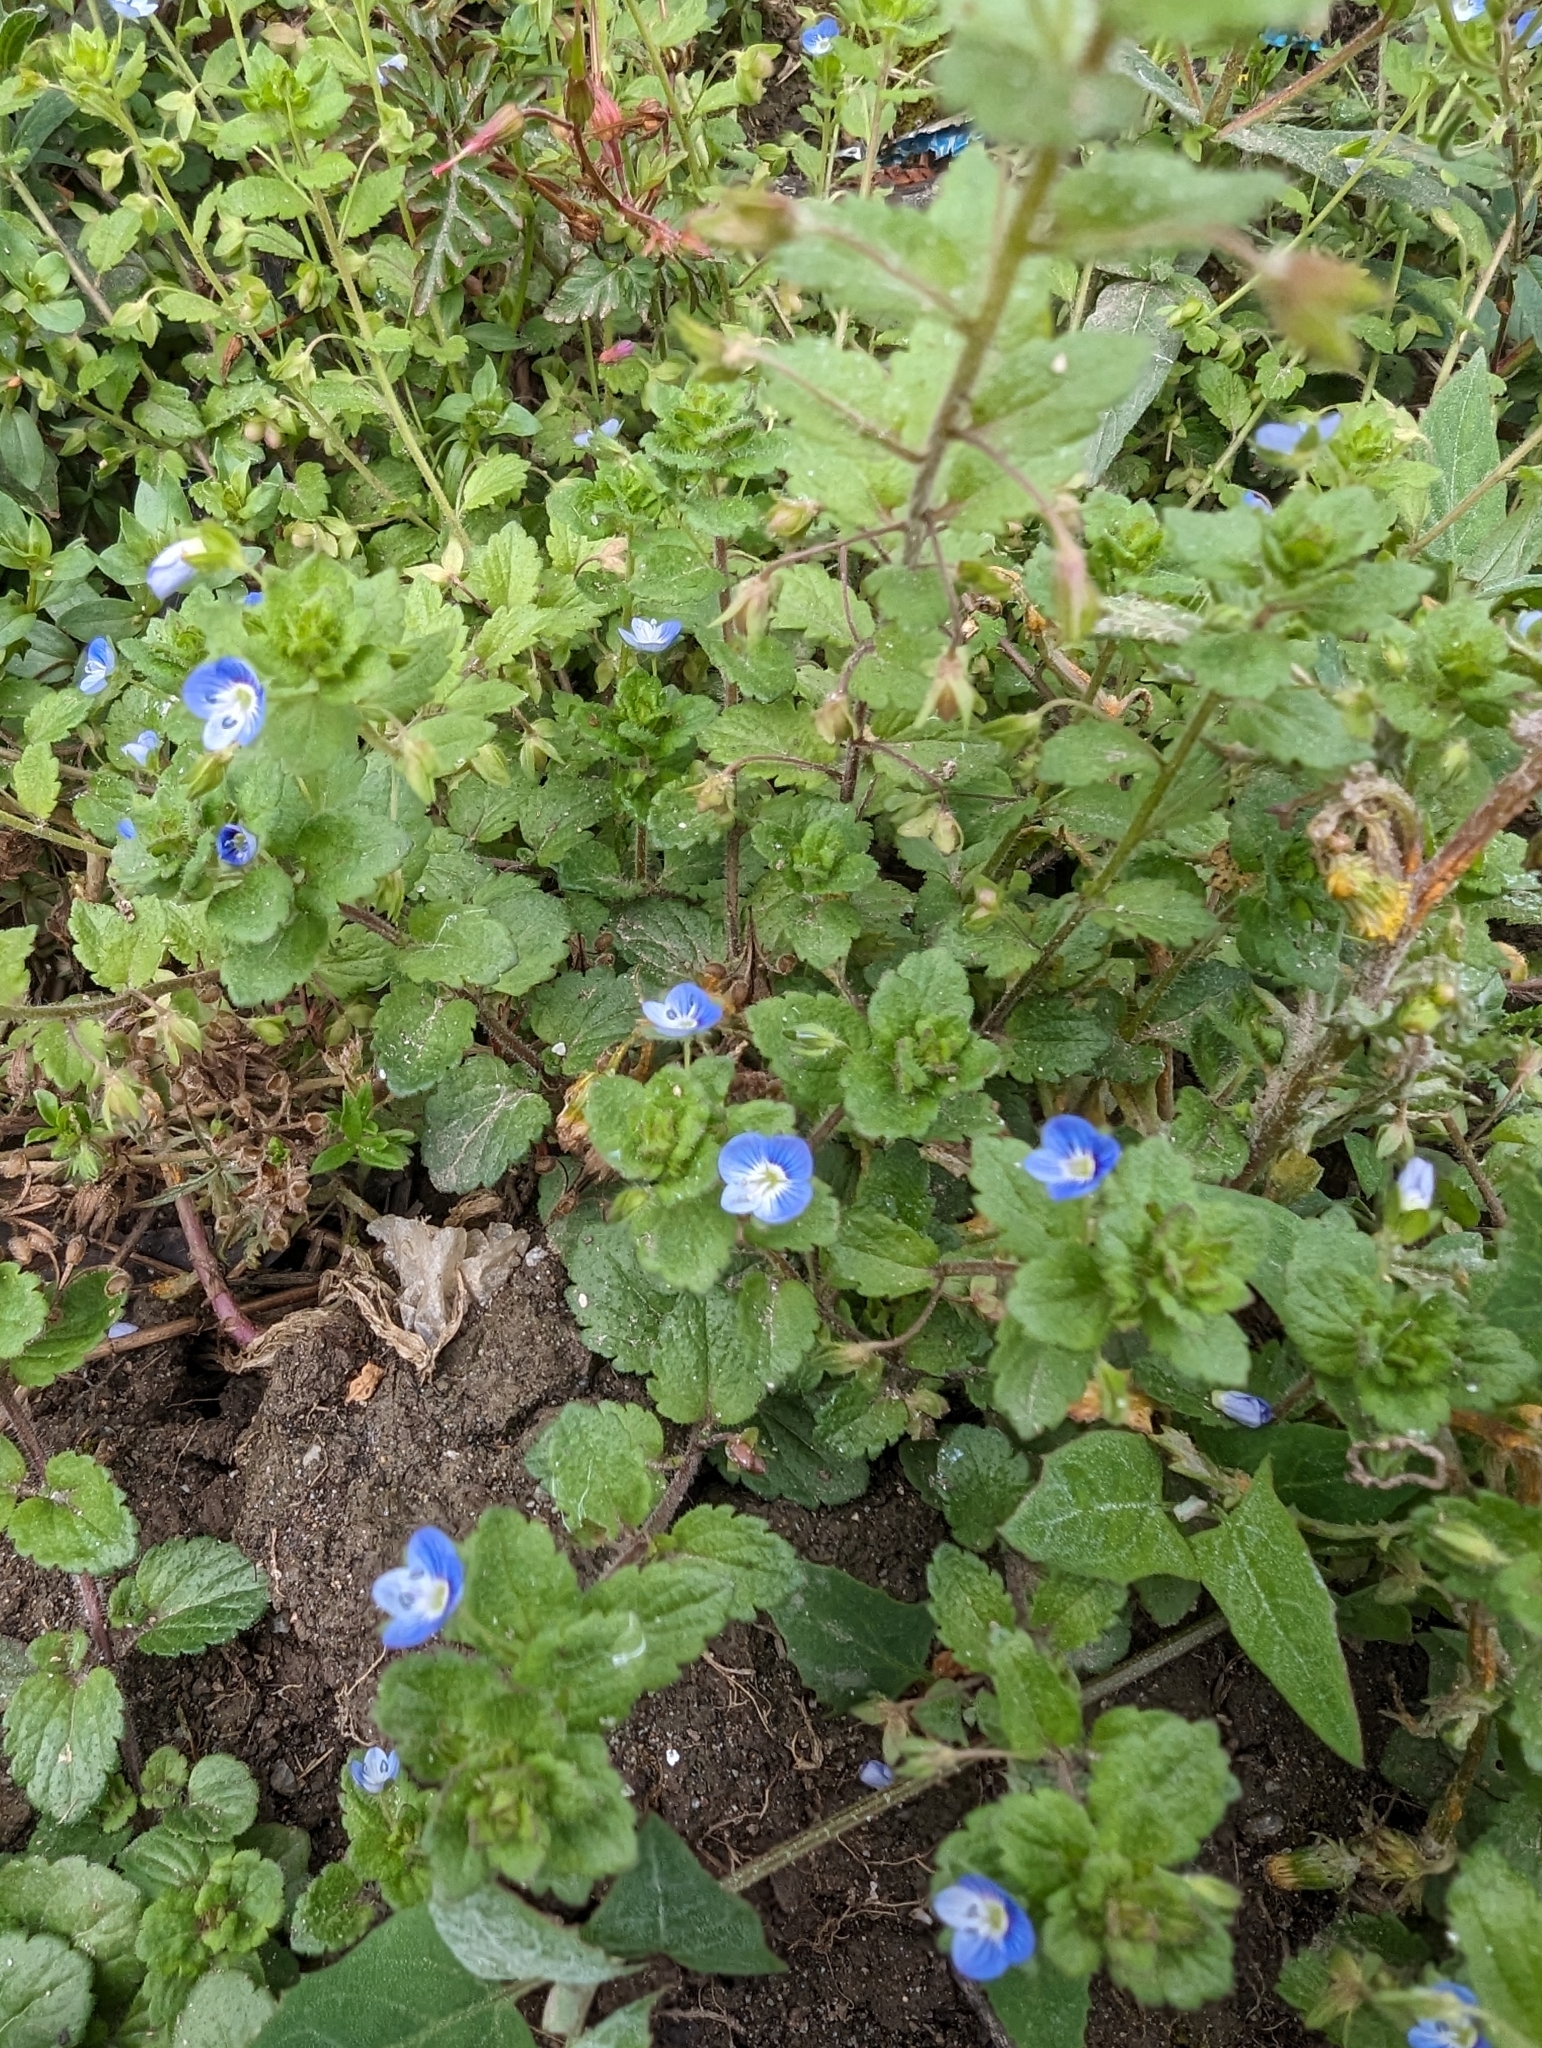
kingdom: Plantae
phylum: Tracheophyta
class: Magnoliopsida
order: Lamiales
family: Plantaginaceae
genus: Veronica
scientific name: Veronica persica
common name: Common field-speedwell
